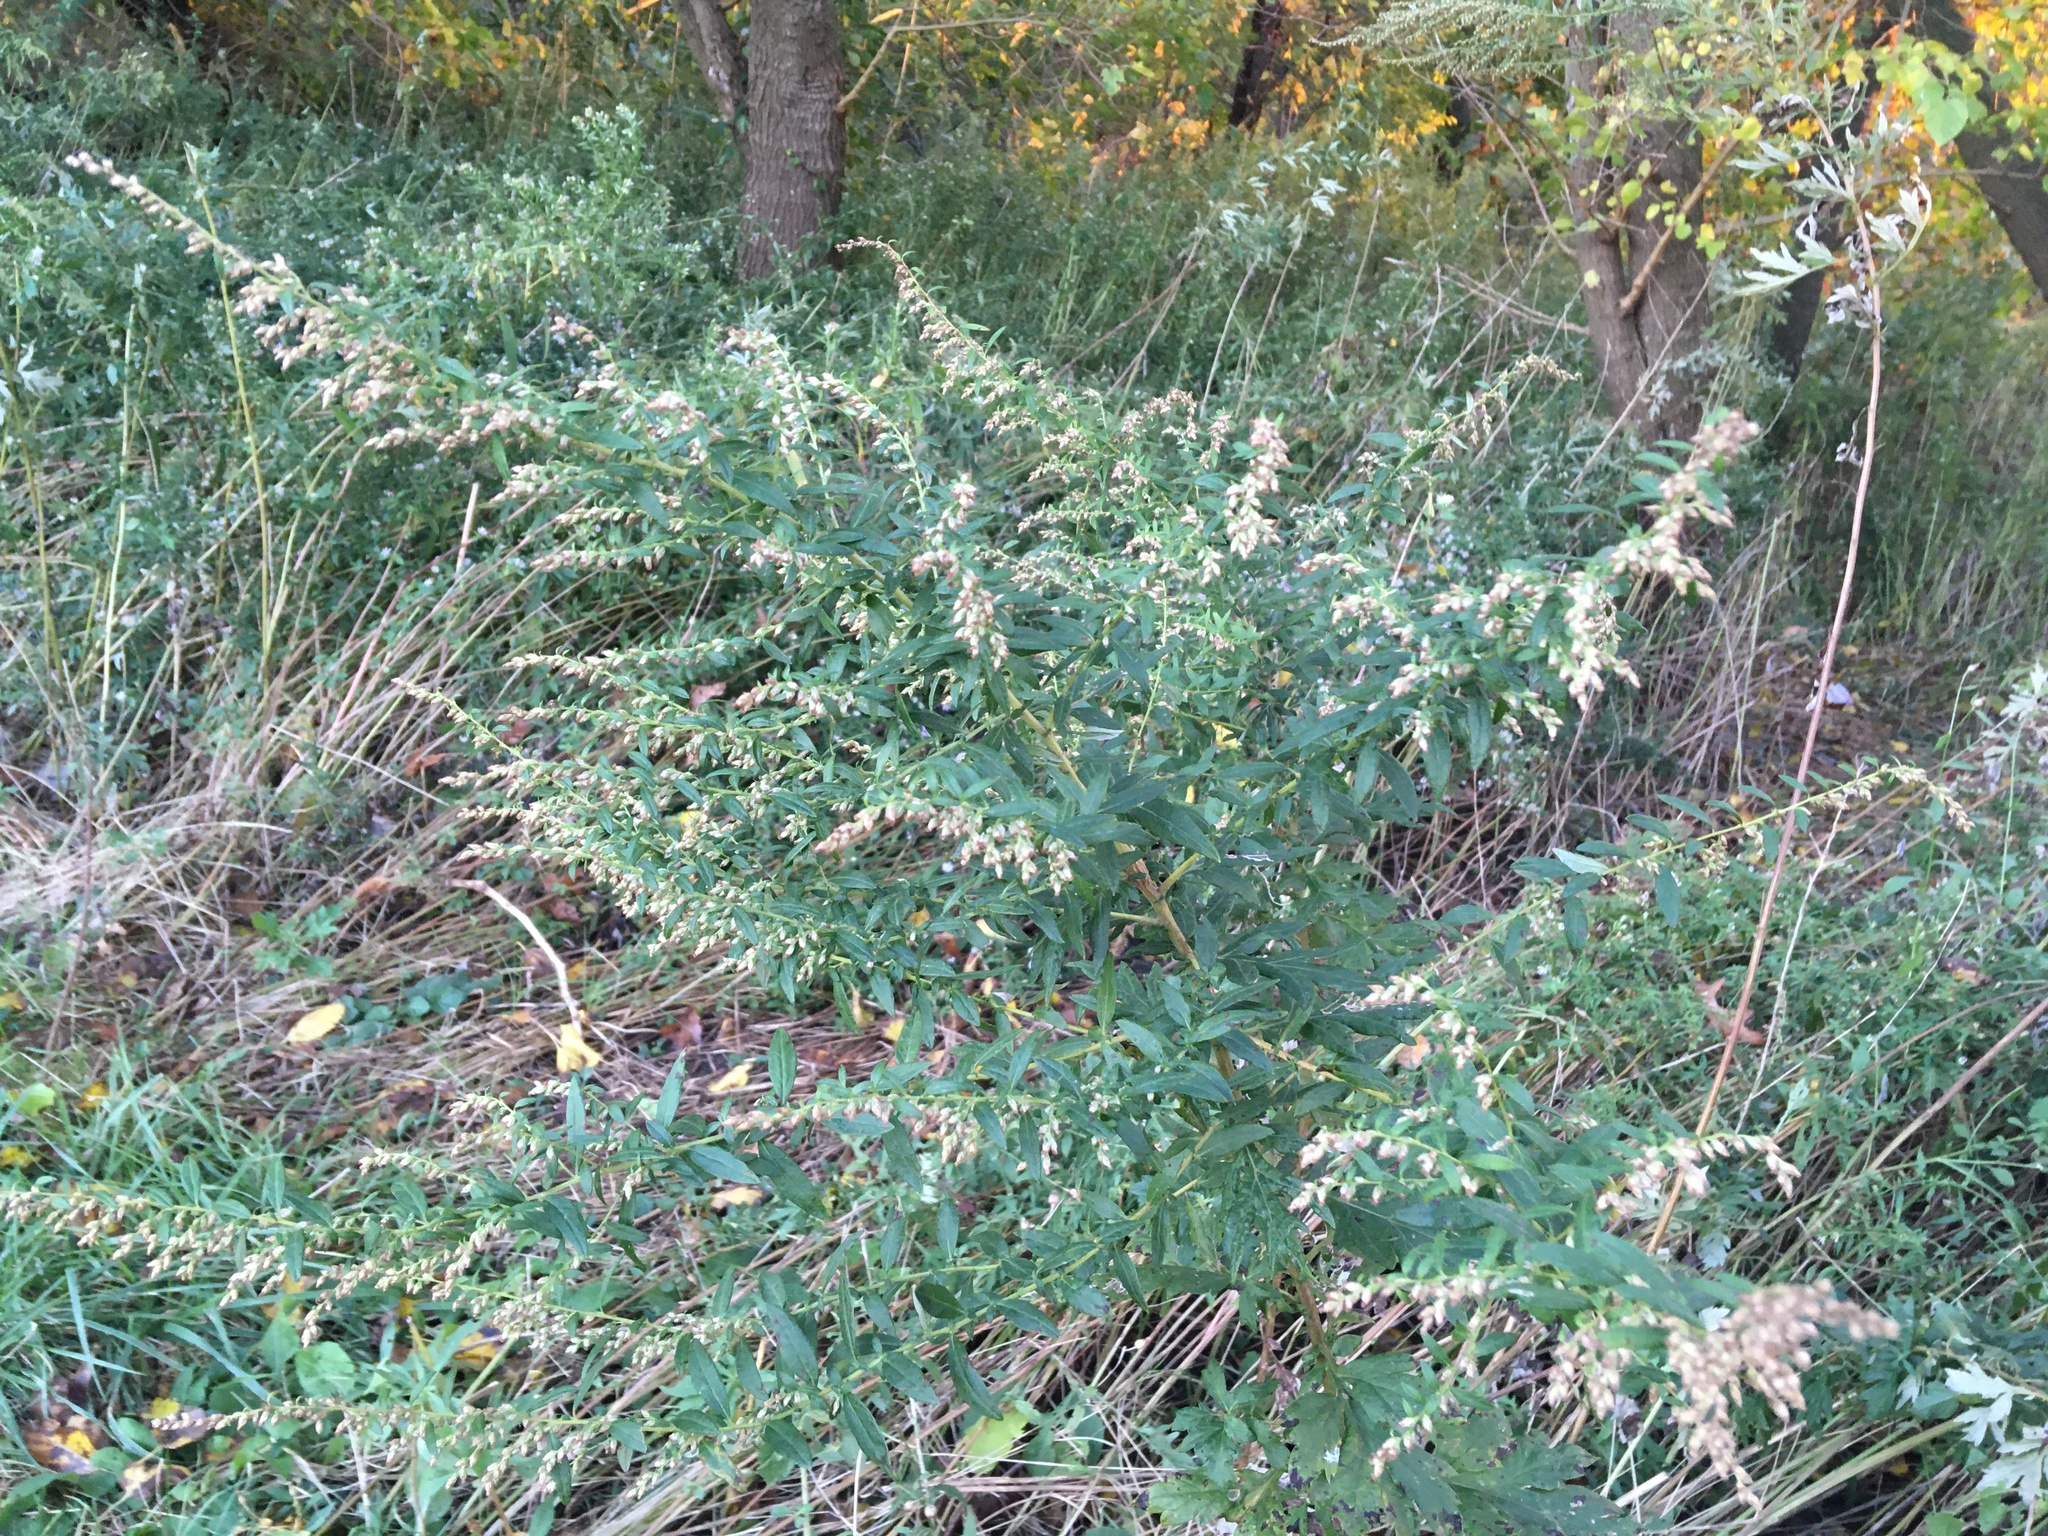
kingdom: Plantae
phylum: Tracheophyta
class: Magnoliopsida
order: Asterales
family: Asteraceae
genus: Artemisia
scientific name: Artemisia vulgaris
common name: Mugwort
